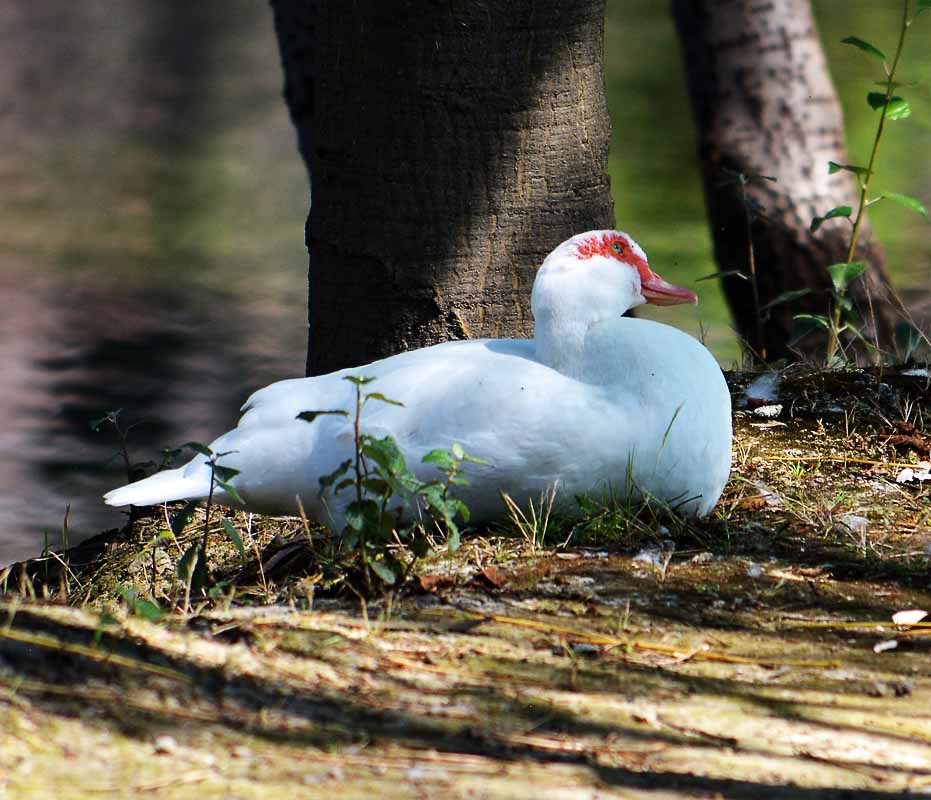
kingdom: Animalia
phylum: Chordata
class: Aves
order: Anseriformes
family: Anatidae
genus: Cairina
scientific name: Cairina moschata
